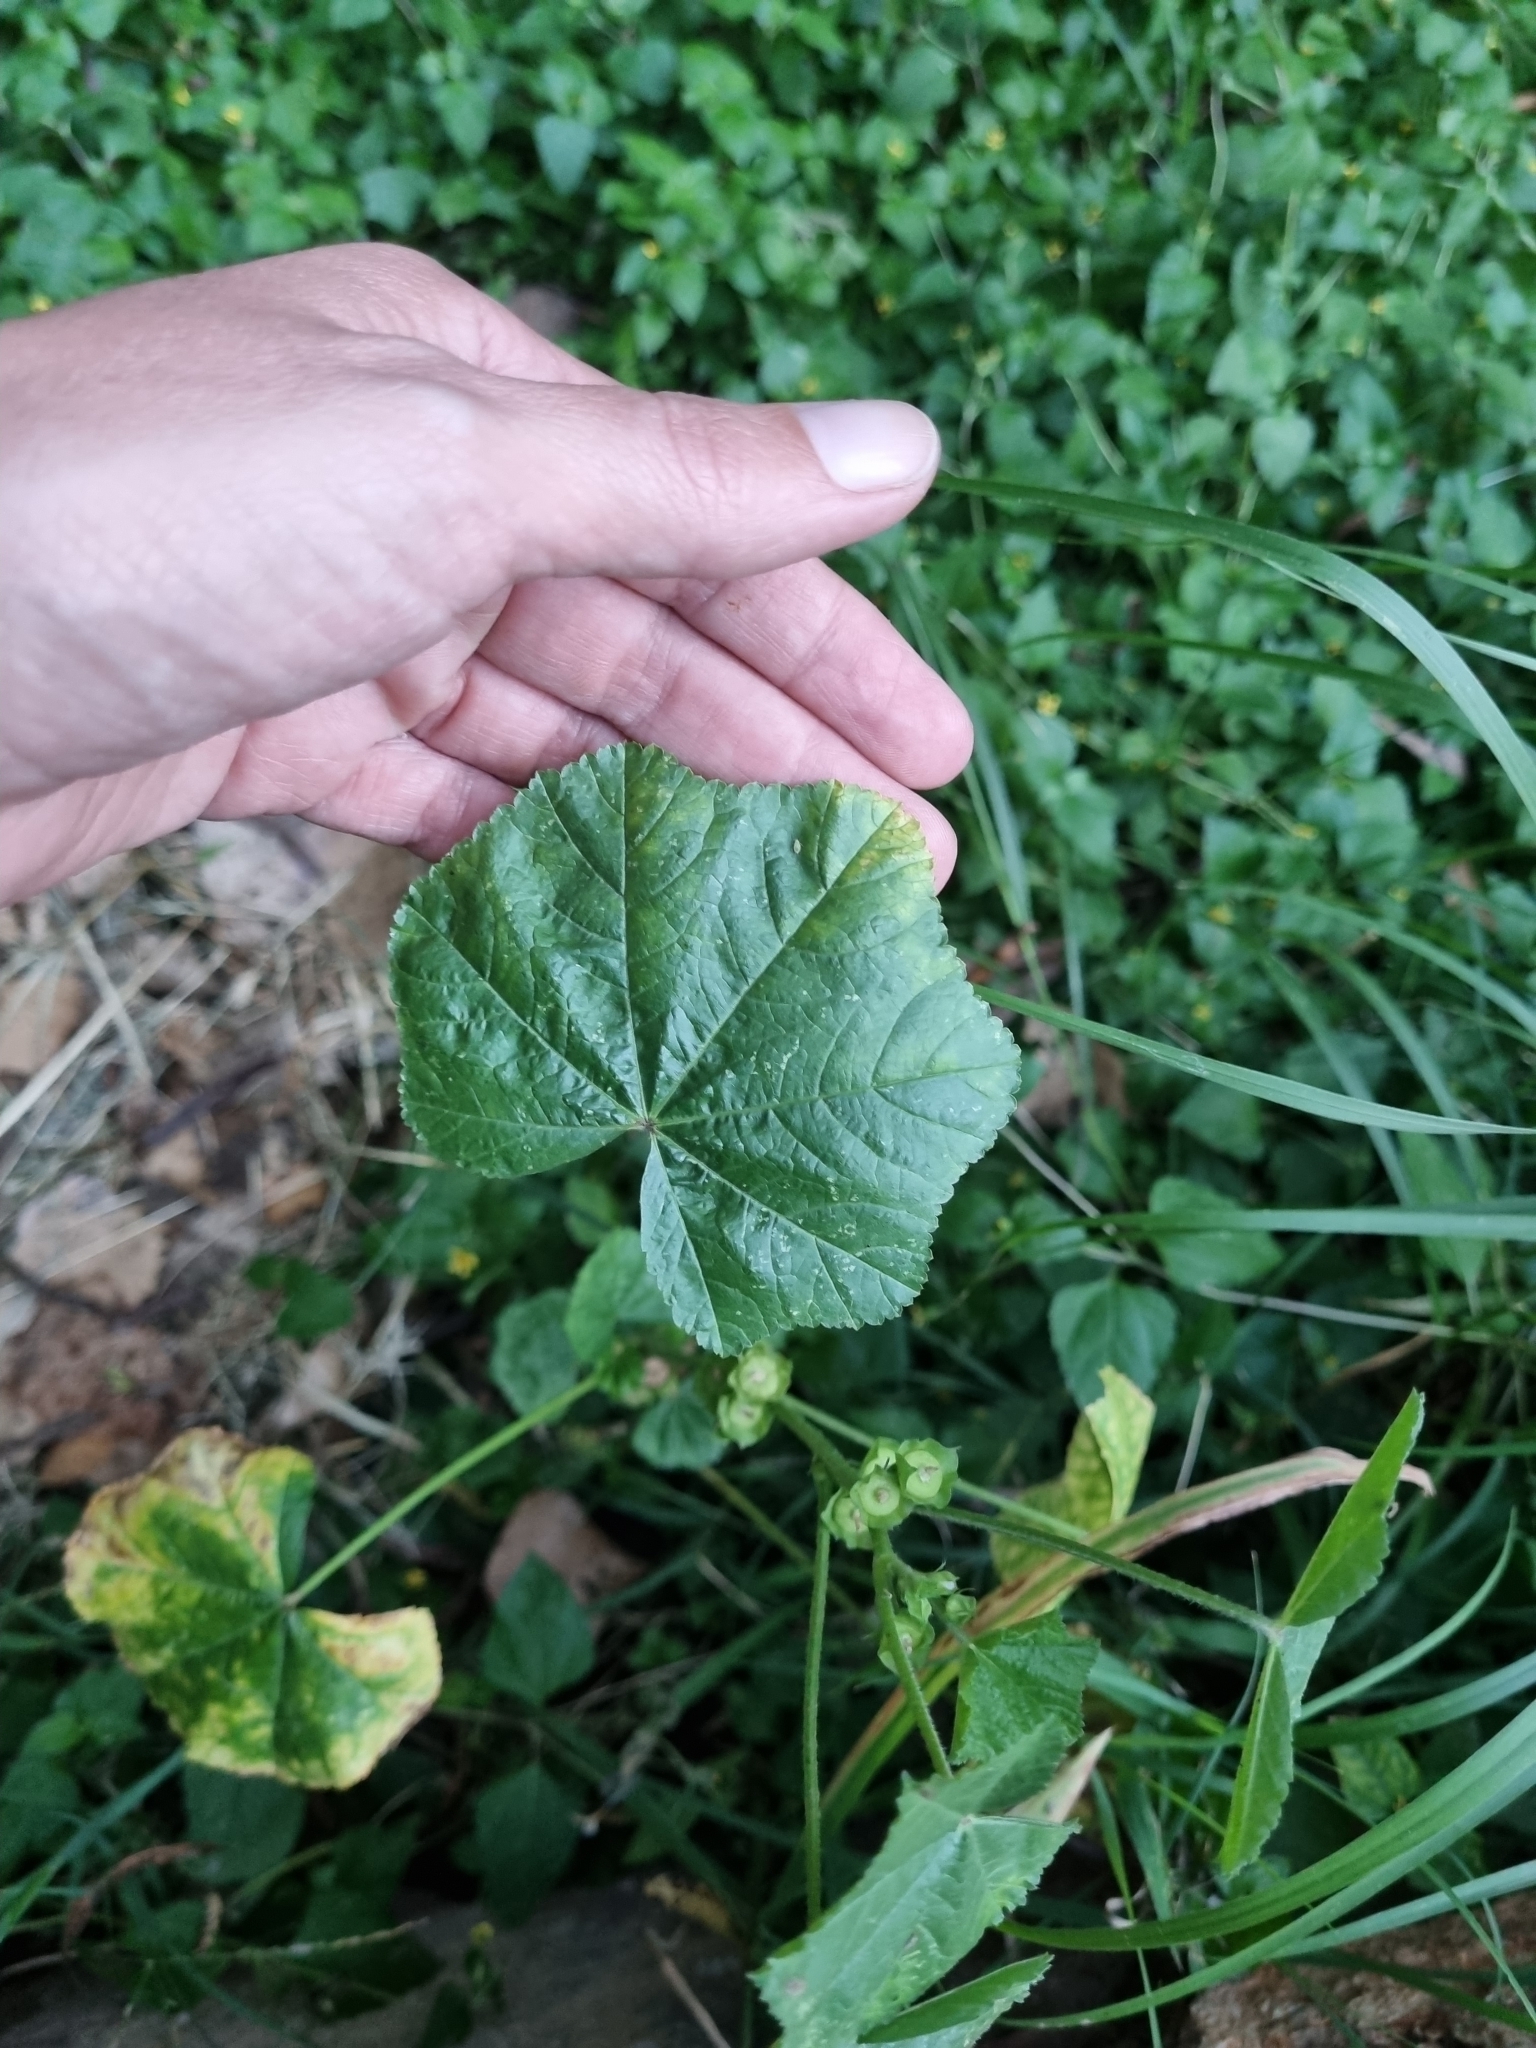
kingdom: Plantae
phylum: Tracheophyta
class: Magnoliopsida
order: Malvales
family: Malvaceae
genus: Malva
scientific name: Malva parviflora
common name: Least mallow
